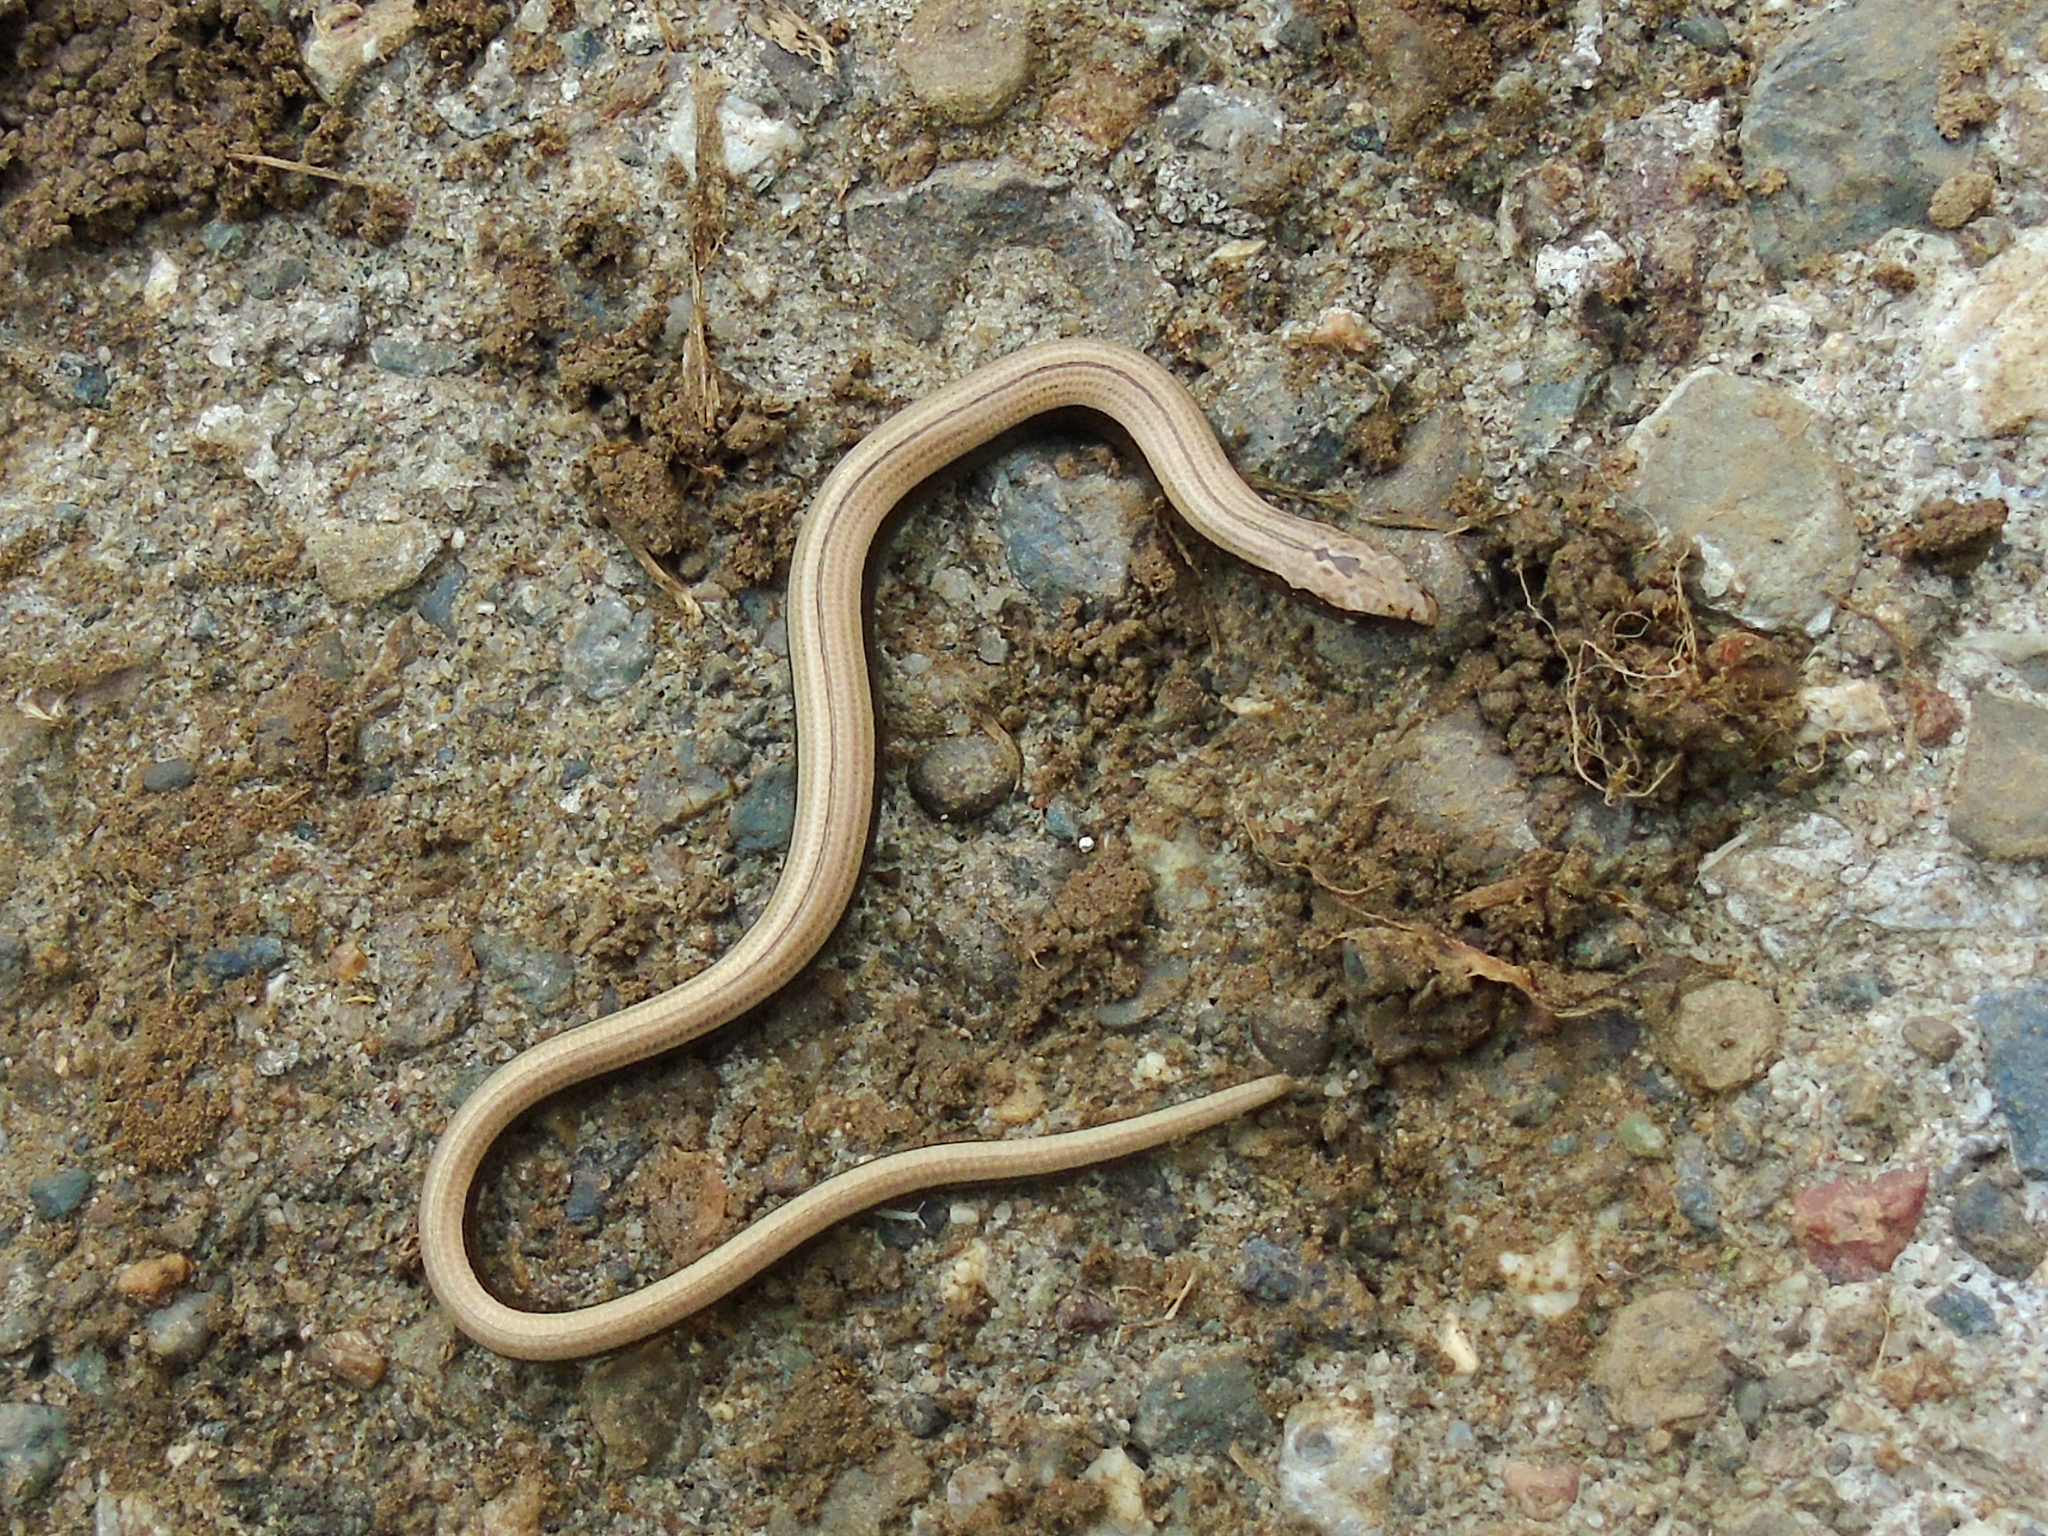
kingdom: Animalia
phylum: Chordata
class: Squamata
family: Anguidae
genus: Anguis
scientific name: Anguis colchica
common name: Slow worm
